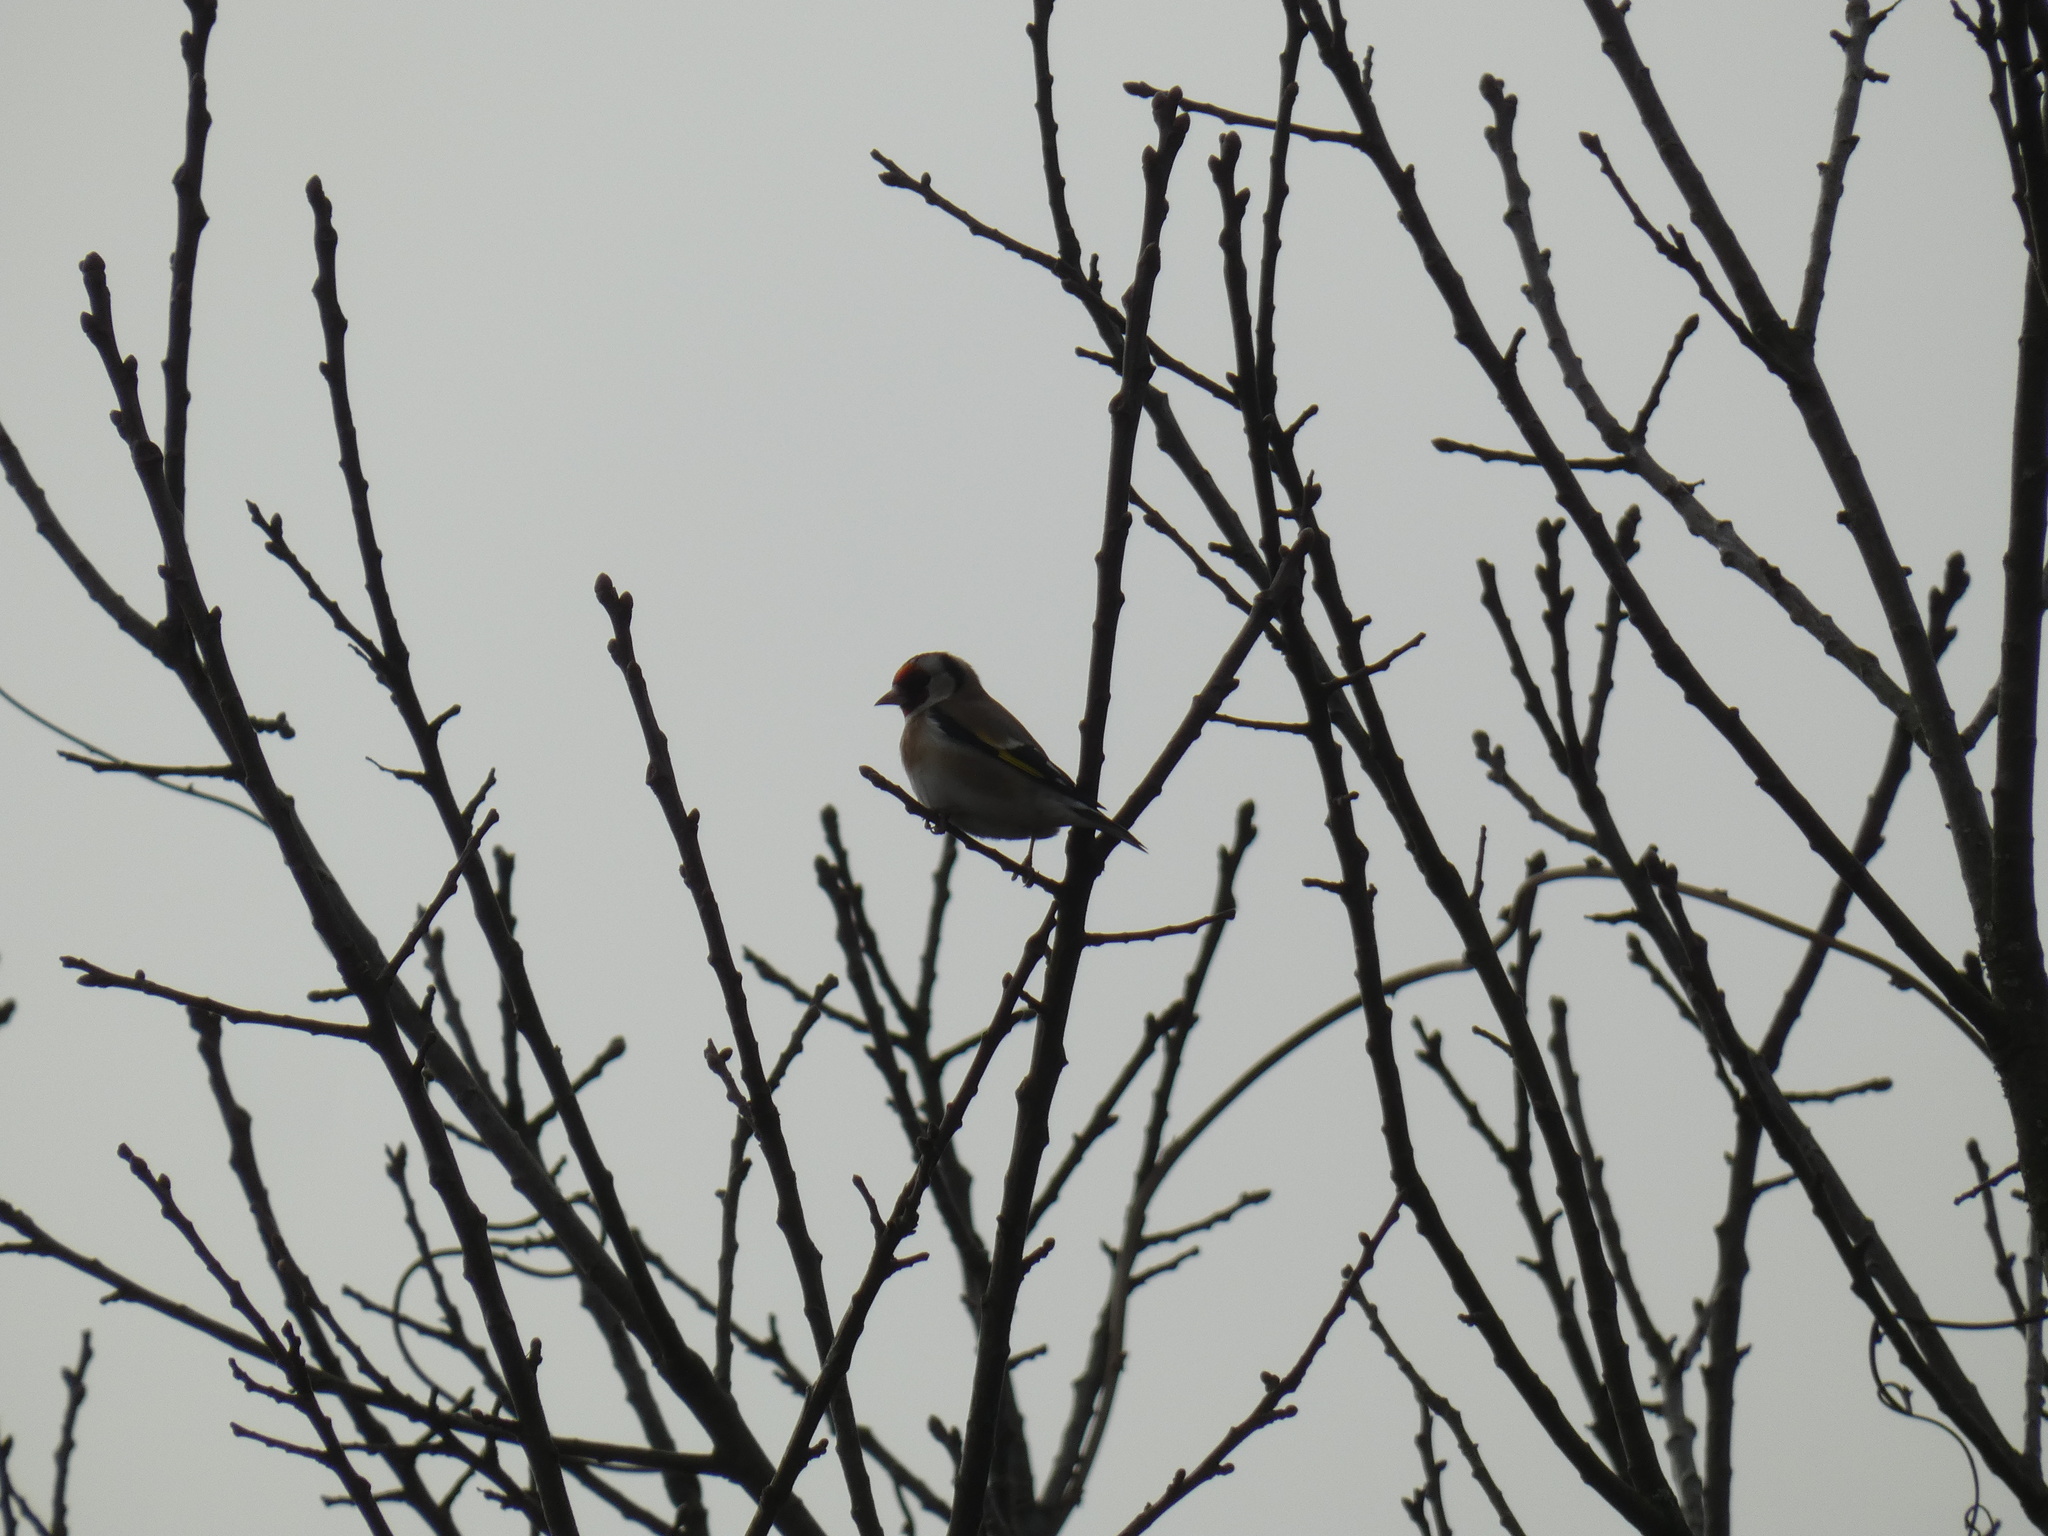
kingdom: Animalia
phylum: Chordata
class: Aves
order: Passeriformes
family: Fringillidae
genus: Carduelis
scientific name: Carduelis carduelis
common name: European goldfinch
